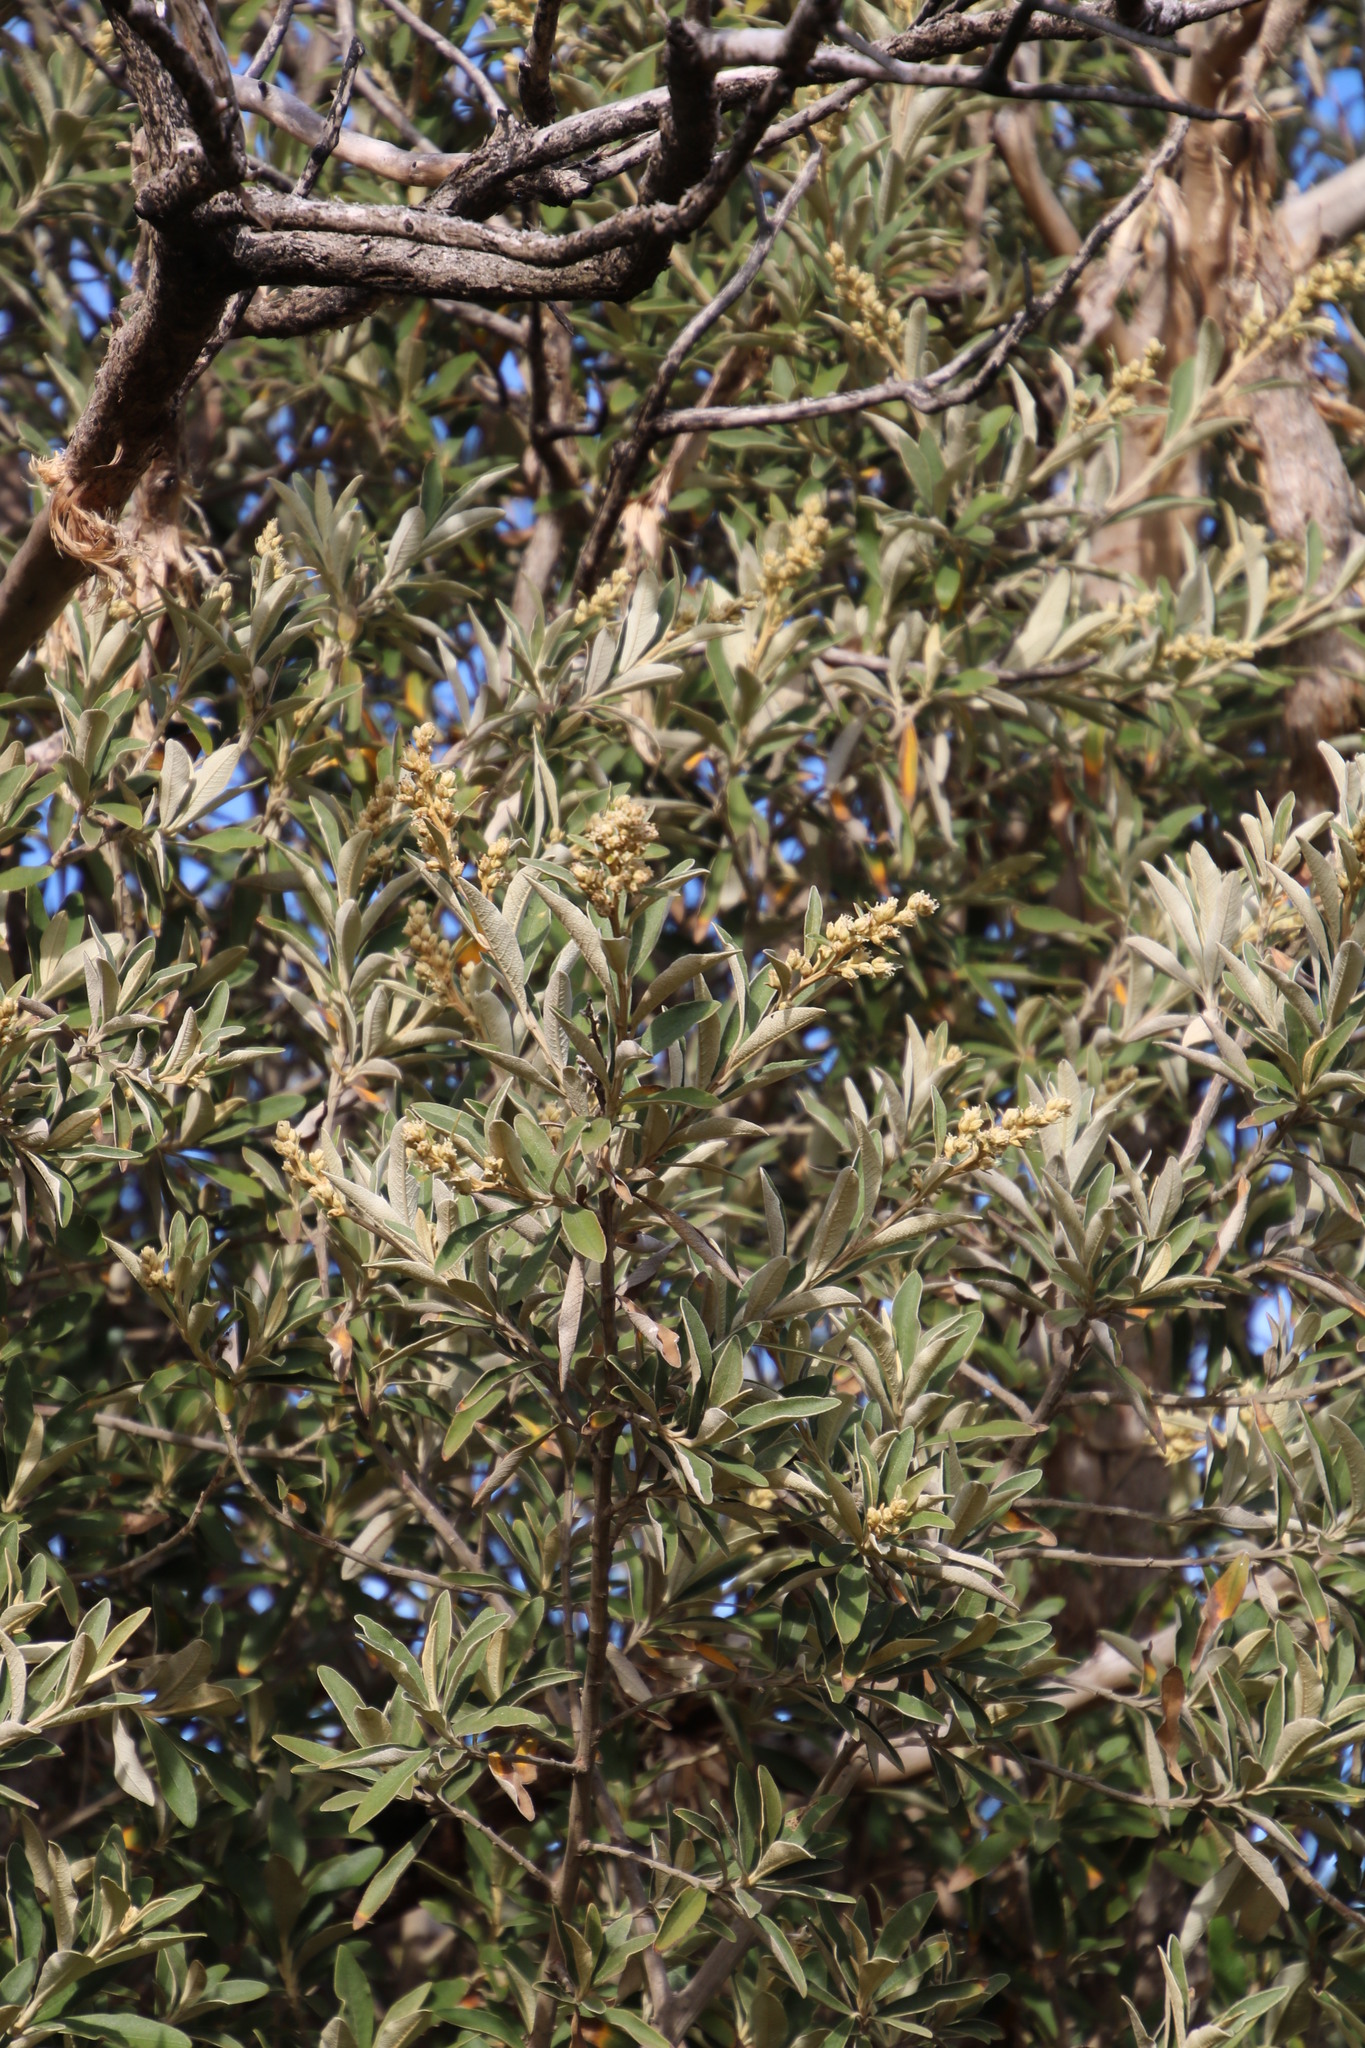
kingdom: Plantae
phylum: Tracheophyta
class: Magnoliopsida
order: Asterales
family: Asteraceae
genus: Tarchonanthus
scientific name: Tarchonanthus littoralis
